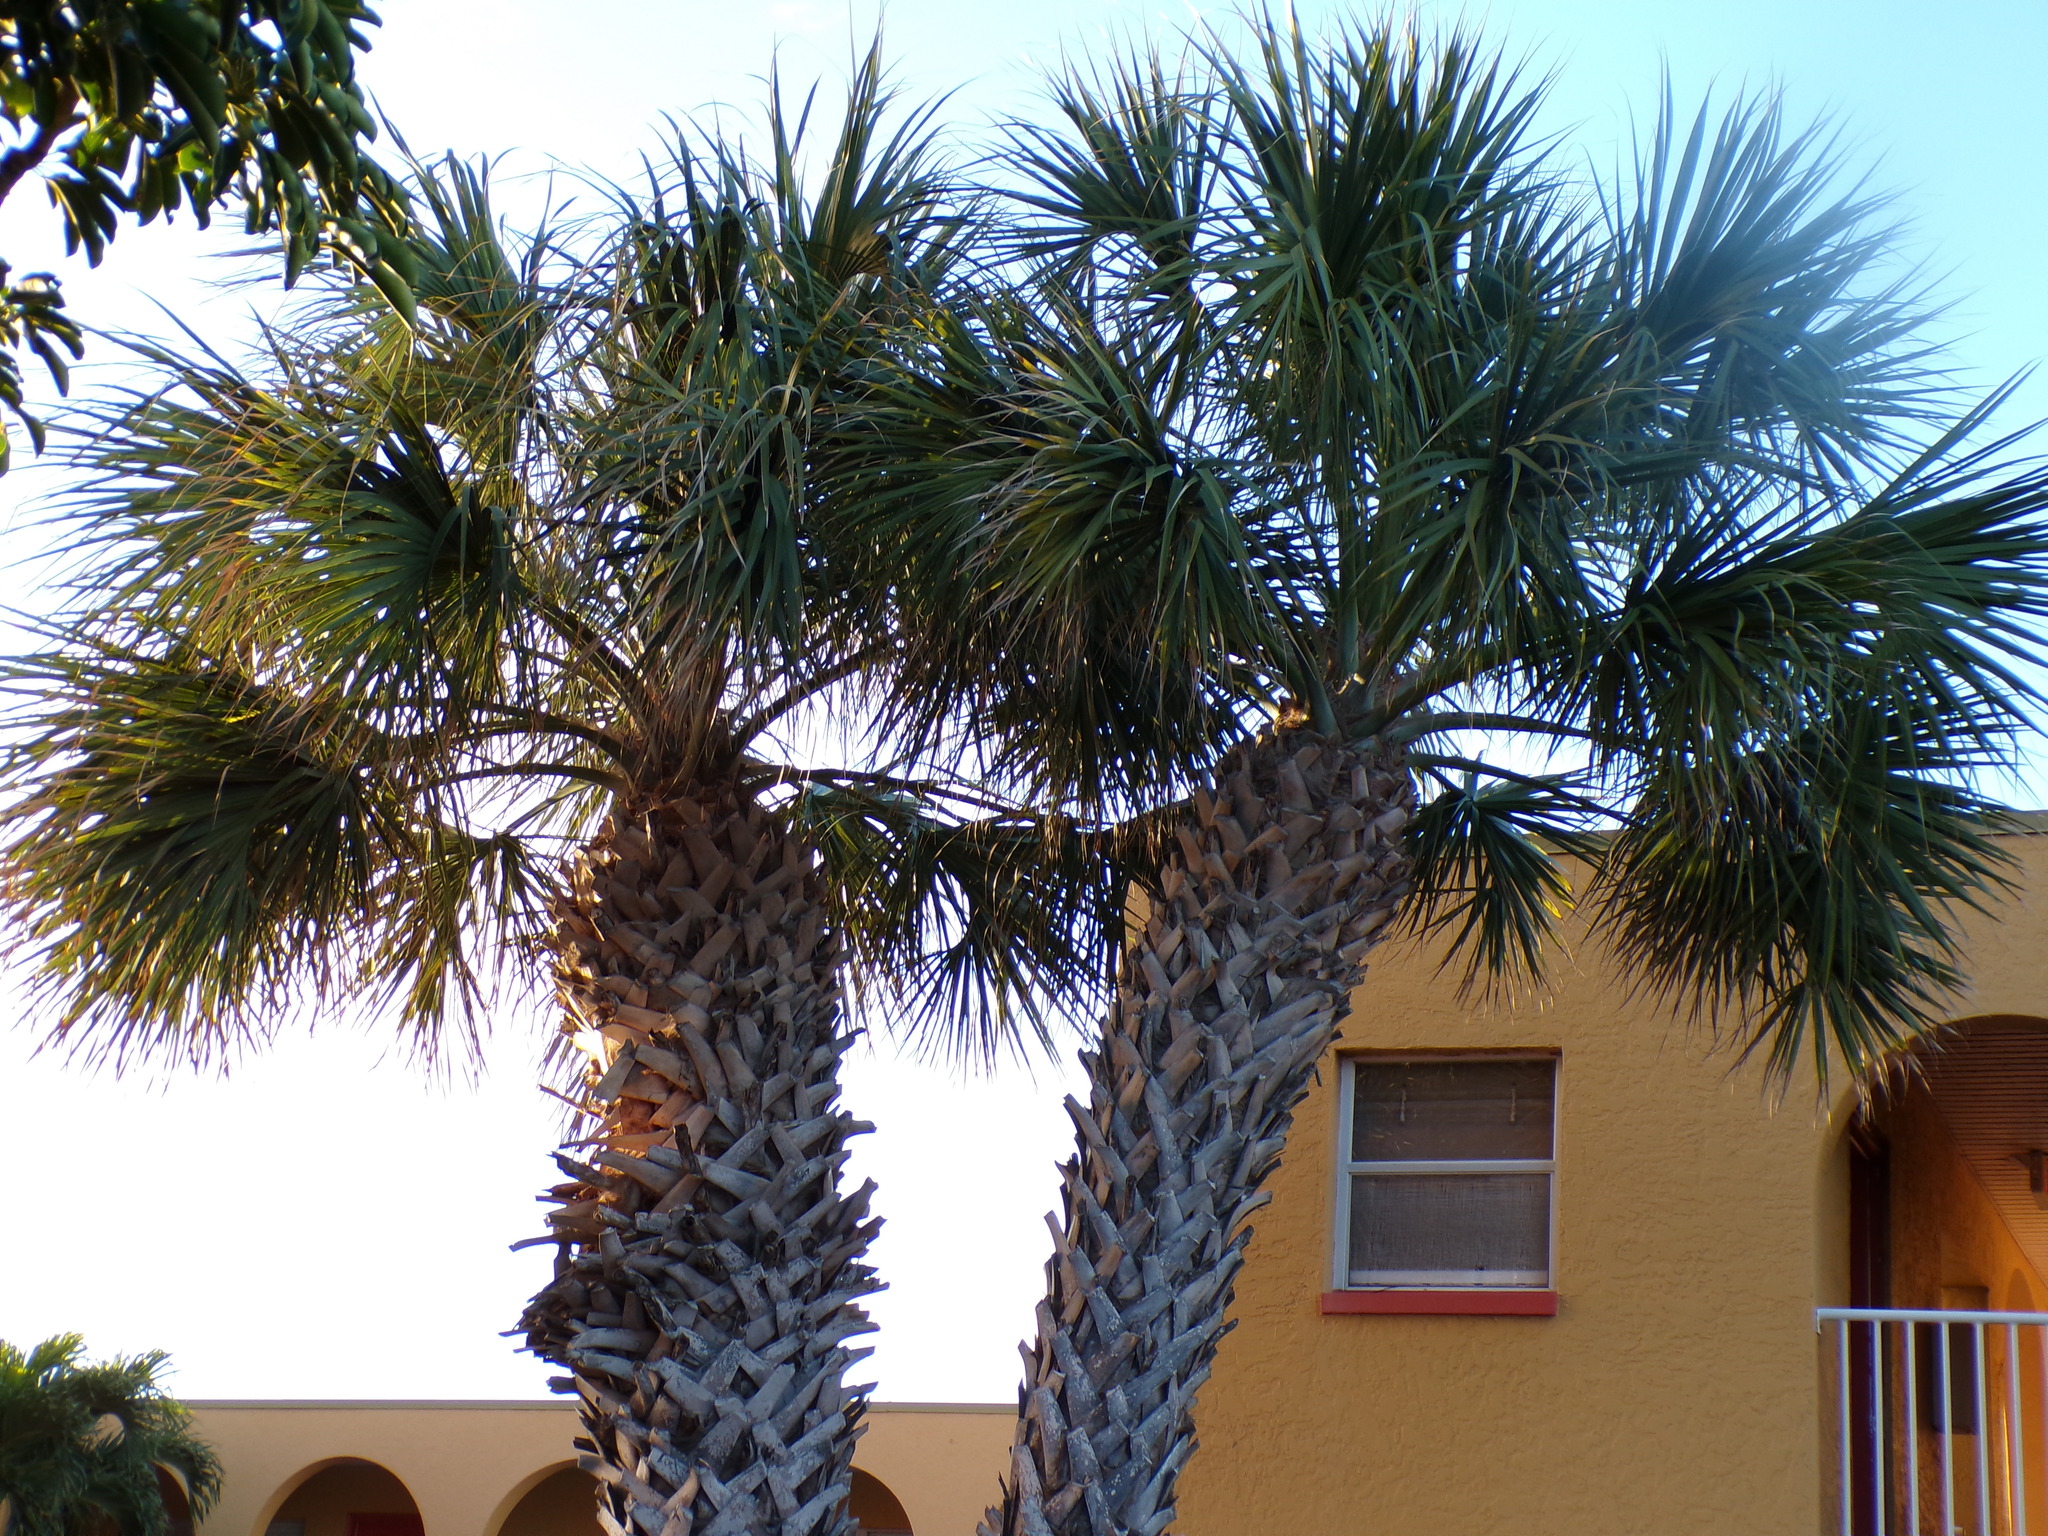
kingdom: Plantae
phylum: Tracheophyta
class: Liliopsida
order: Arecales
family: Arecaceae
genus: Sabal
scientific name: Sabal palmetto
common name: Blue palmetto
